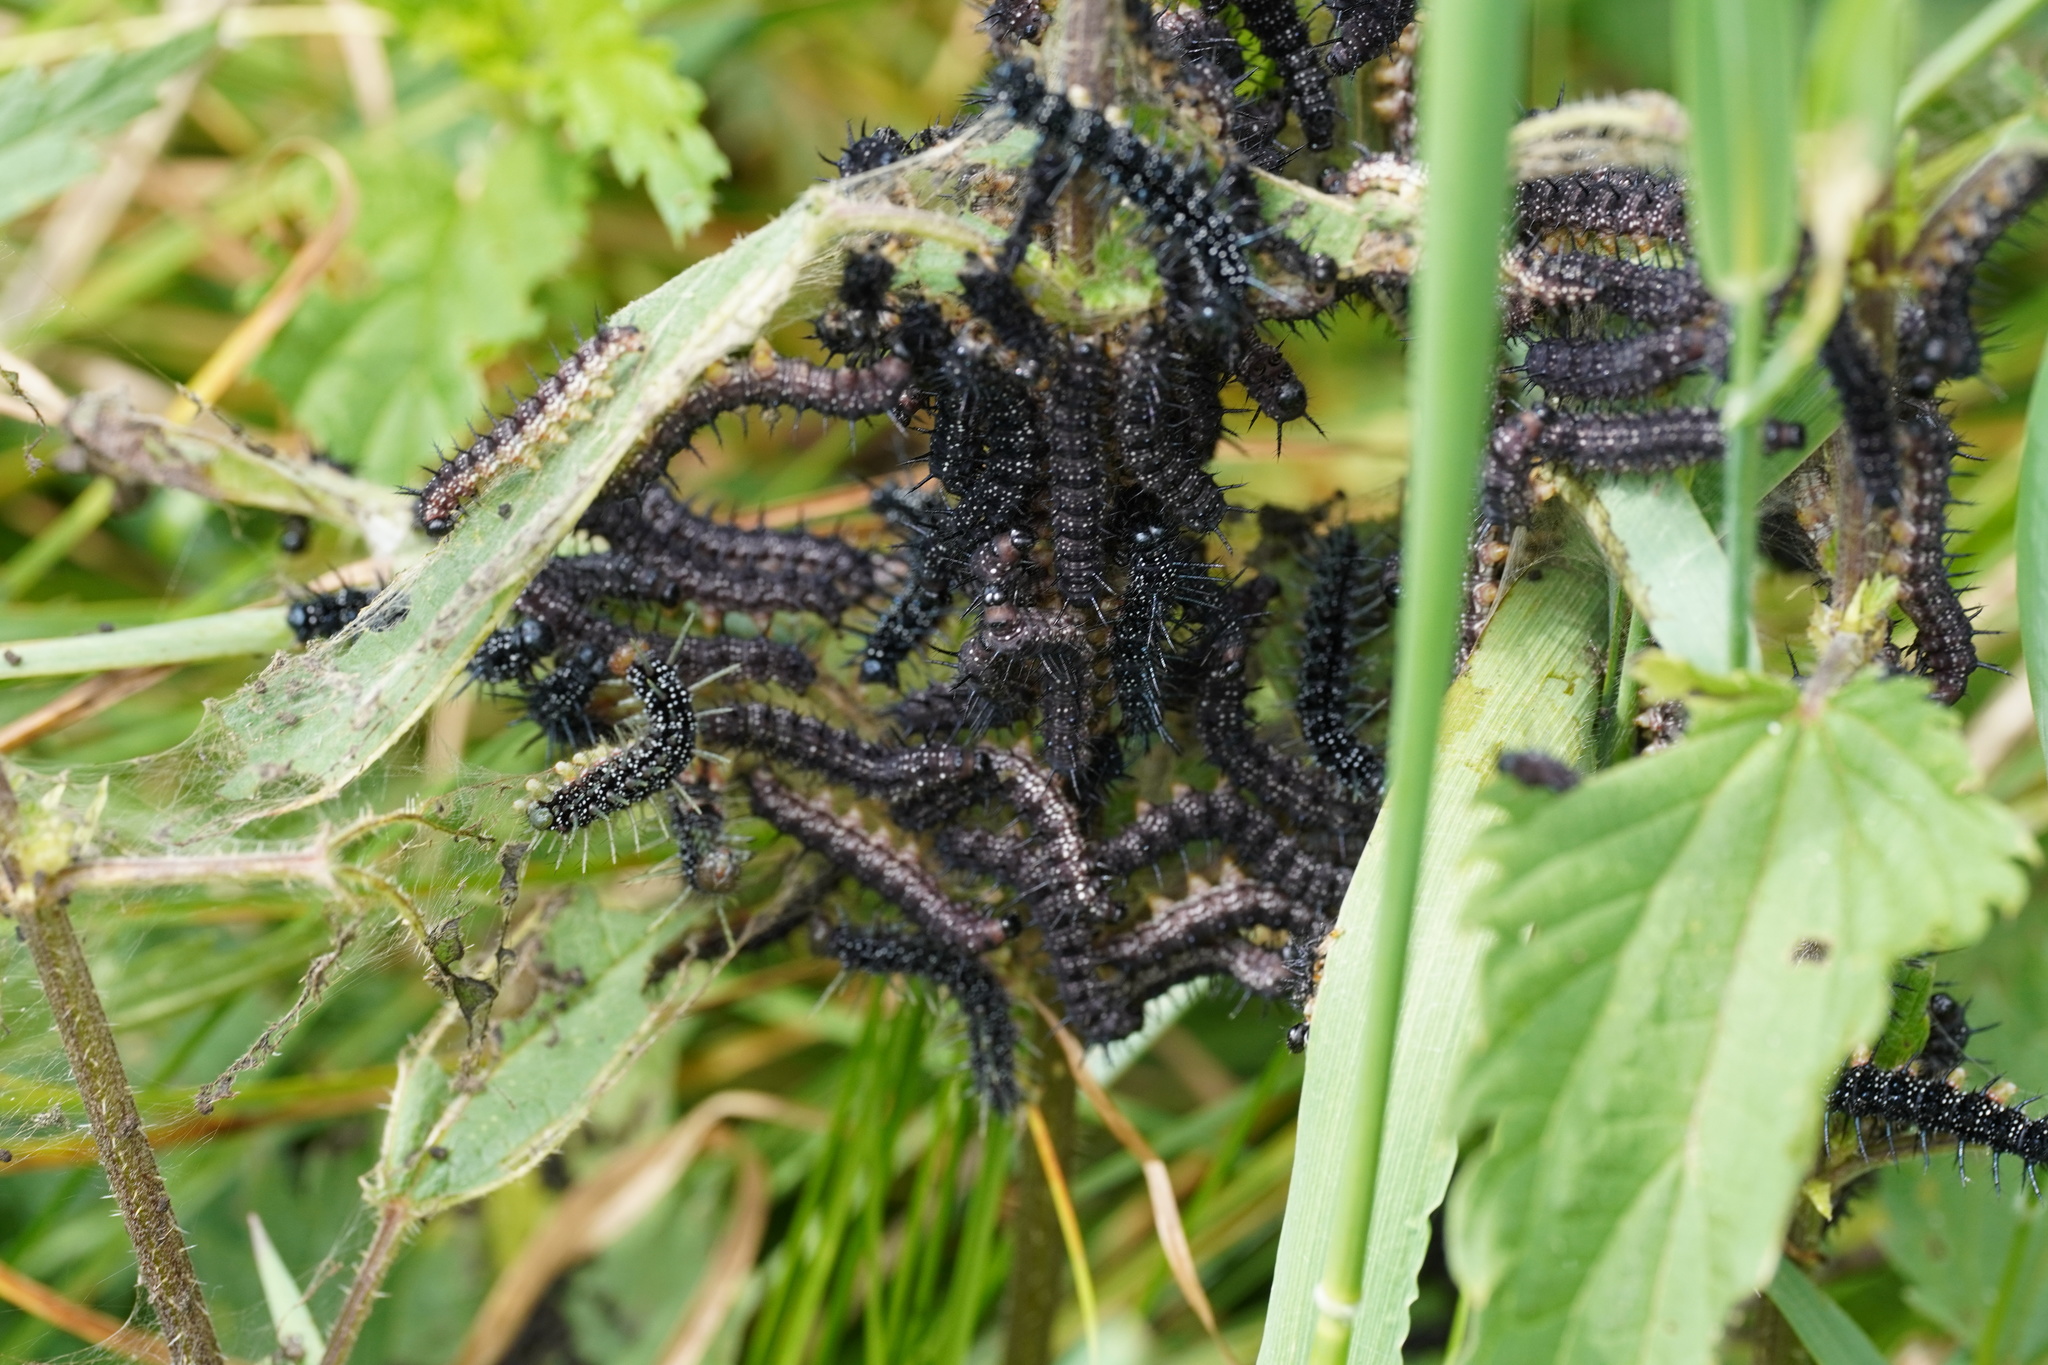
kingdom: Animalia
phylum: Arthropoda
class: Insecta
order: Lepidoptera
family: Nymphalidae
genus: Aglais
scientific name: Aglais io
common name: Peacock
